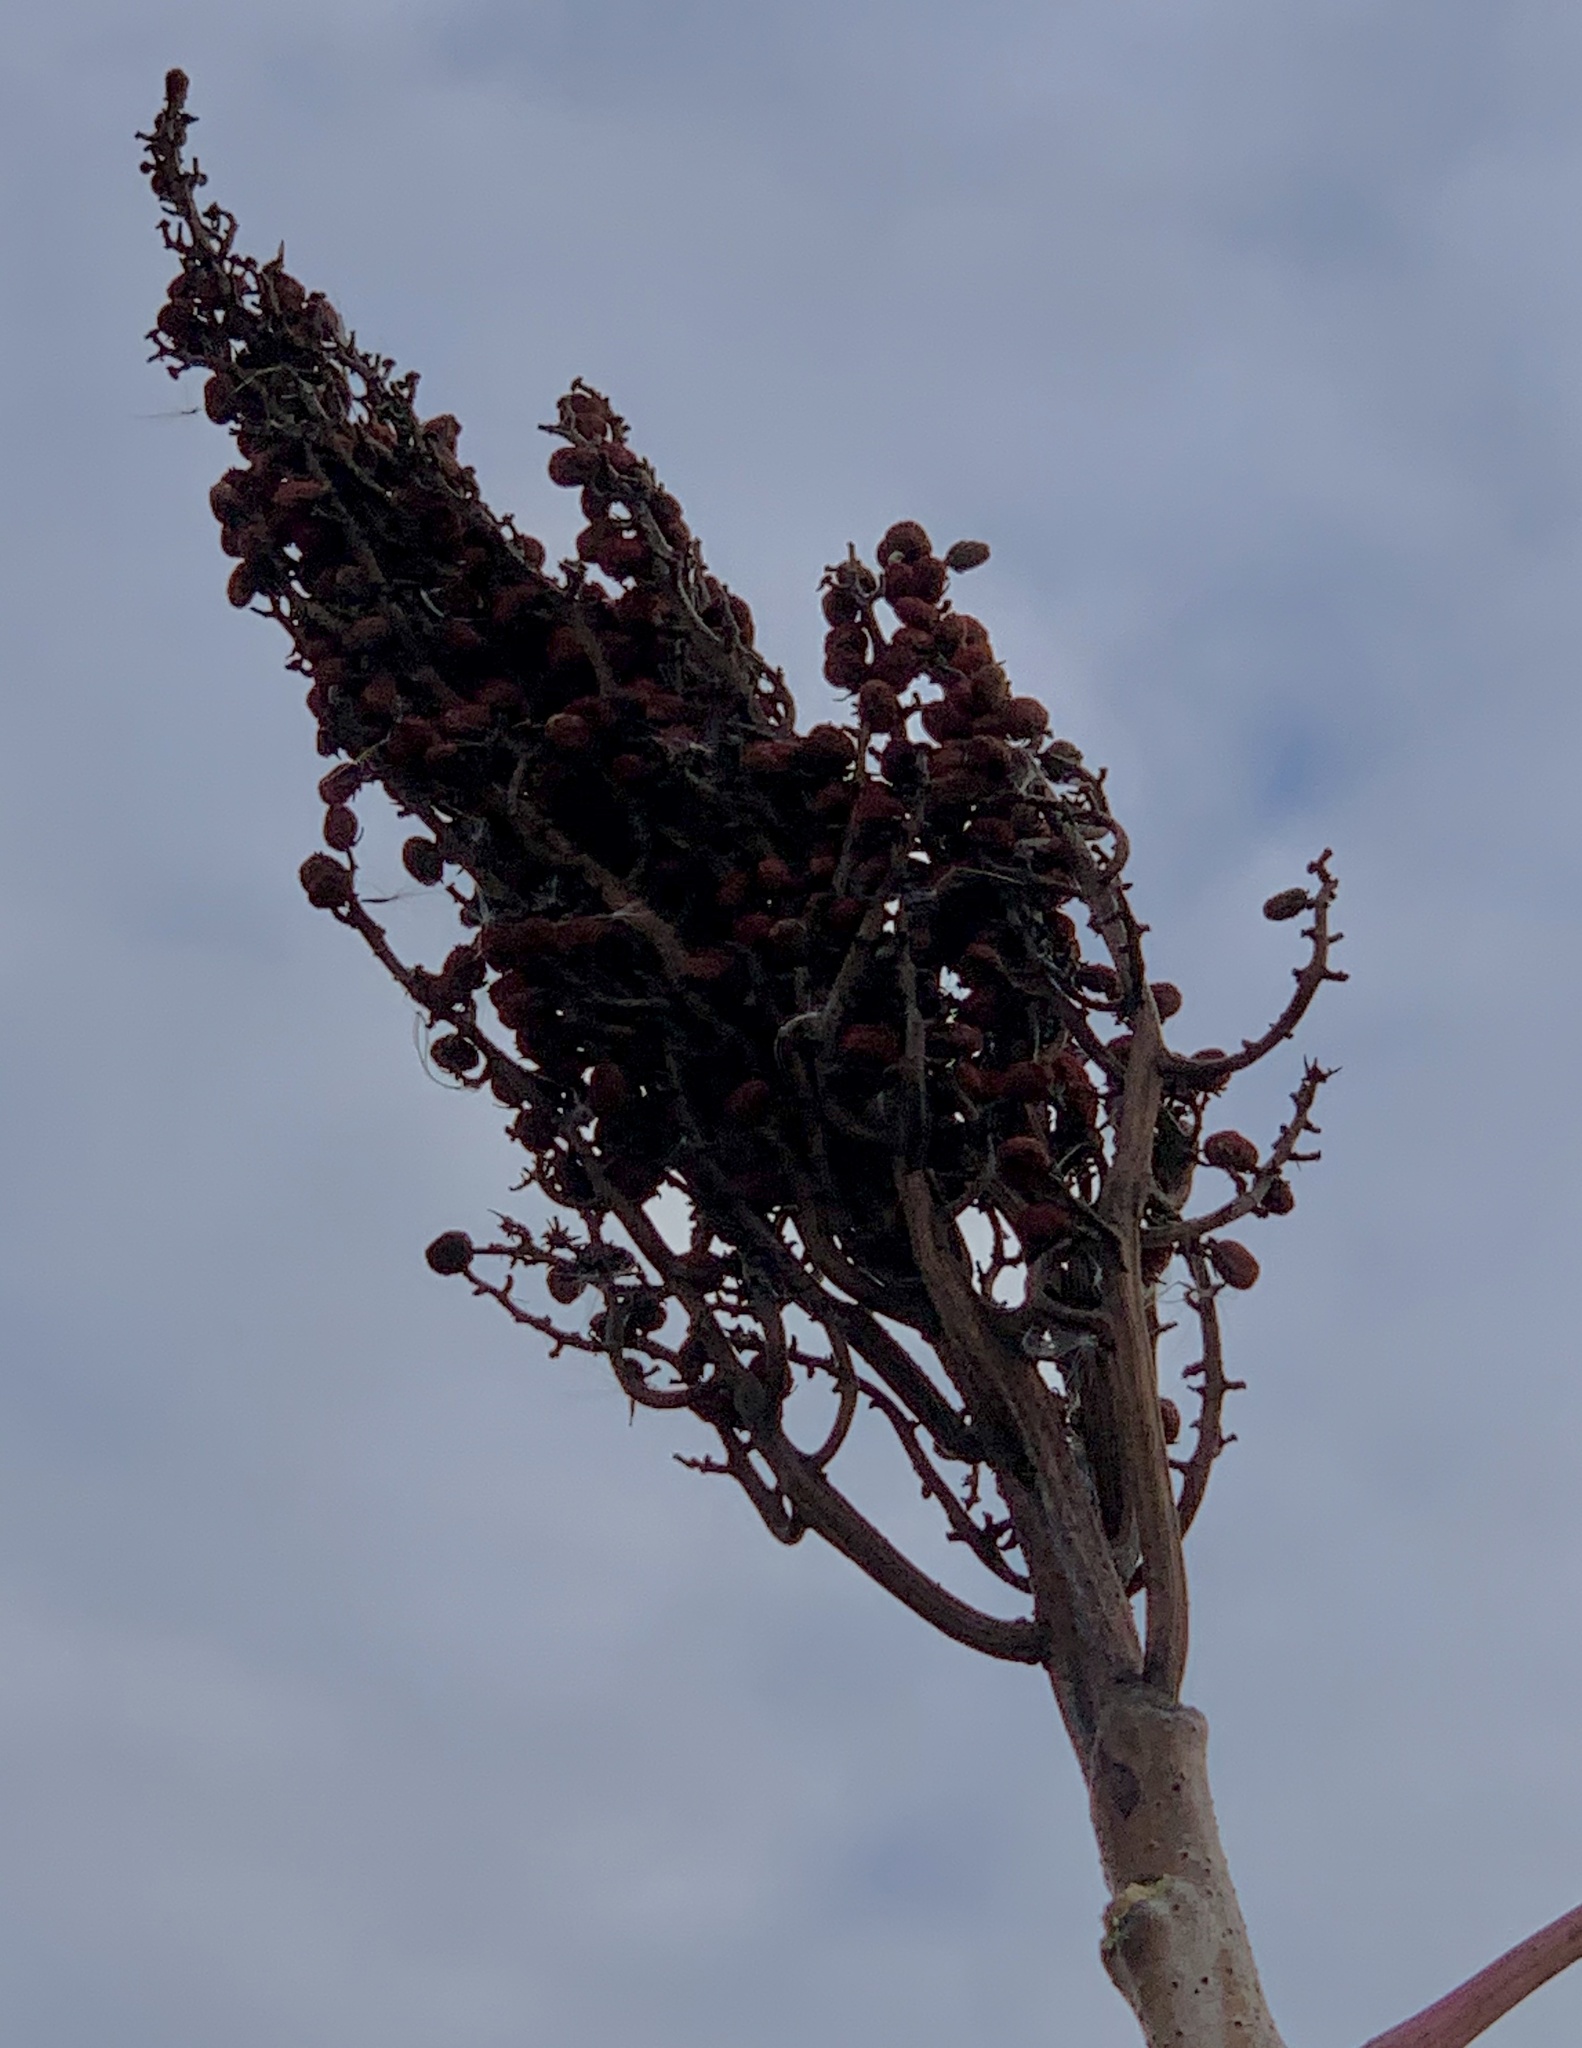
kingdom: Plantae
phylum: Tracheophyta
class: Magnoliopsida
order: Sapindales
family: Anacardiaceae
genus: Rhus
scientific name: Rhus glabra
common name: Scarlet sumac
